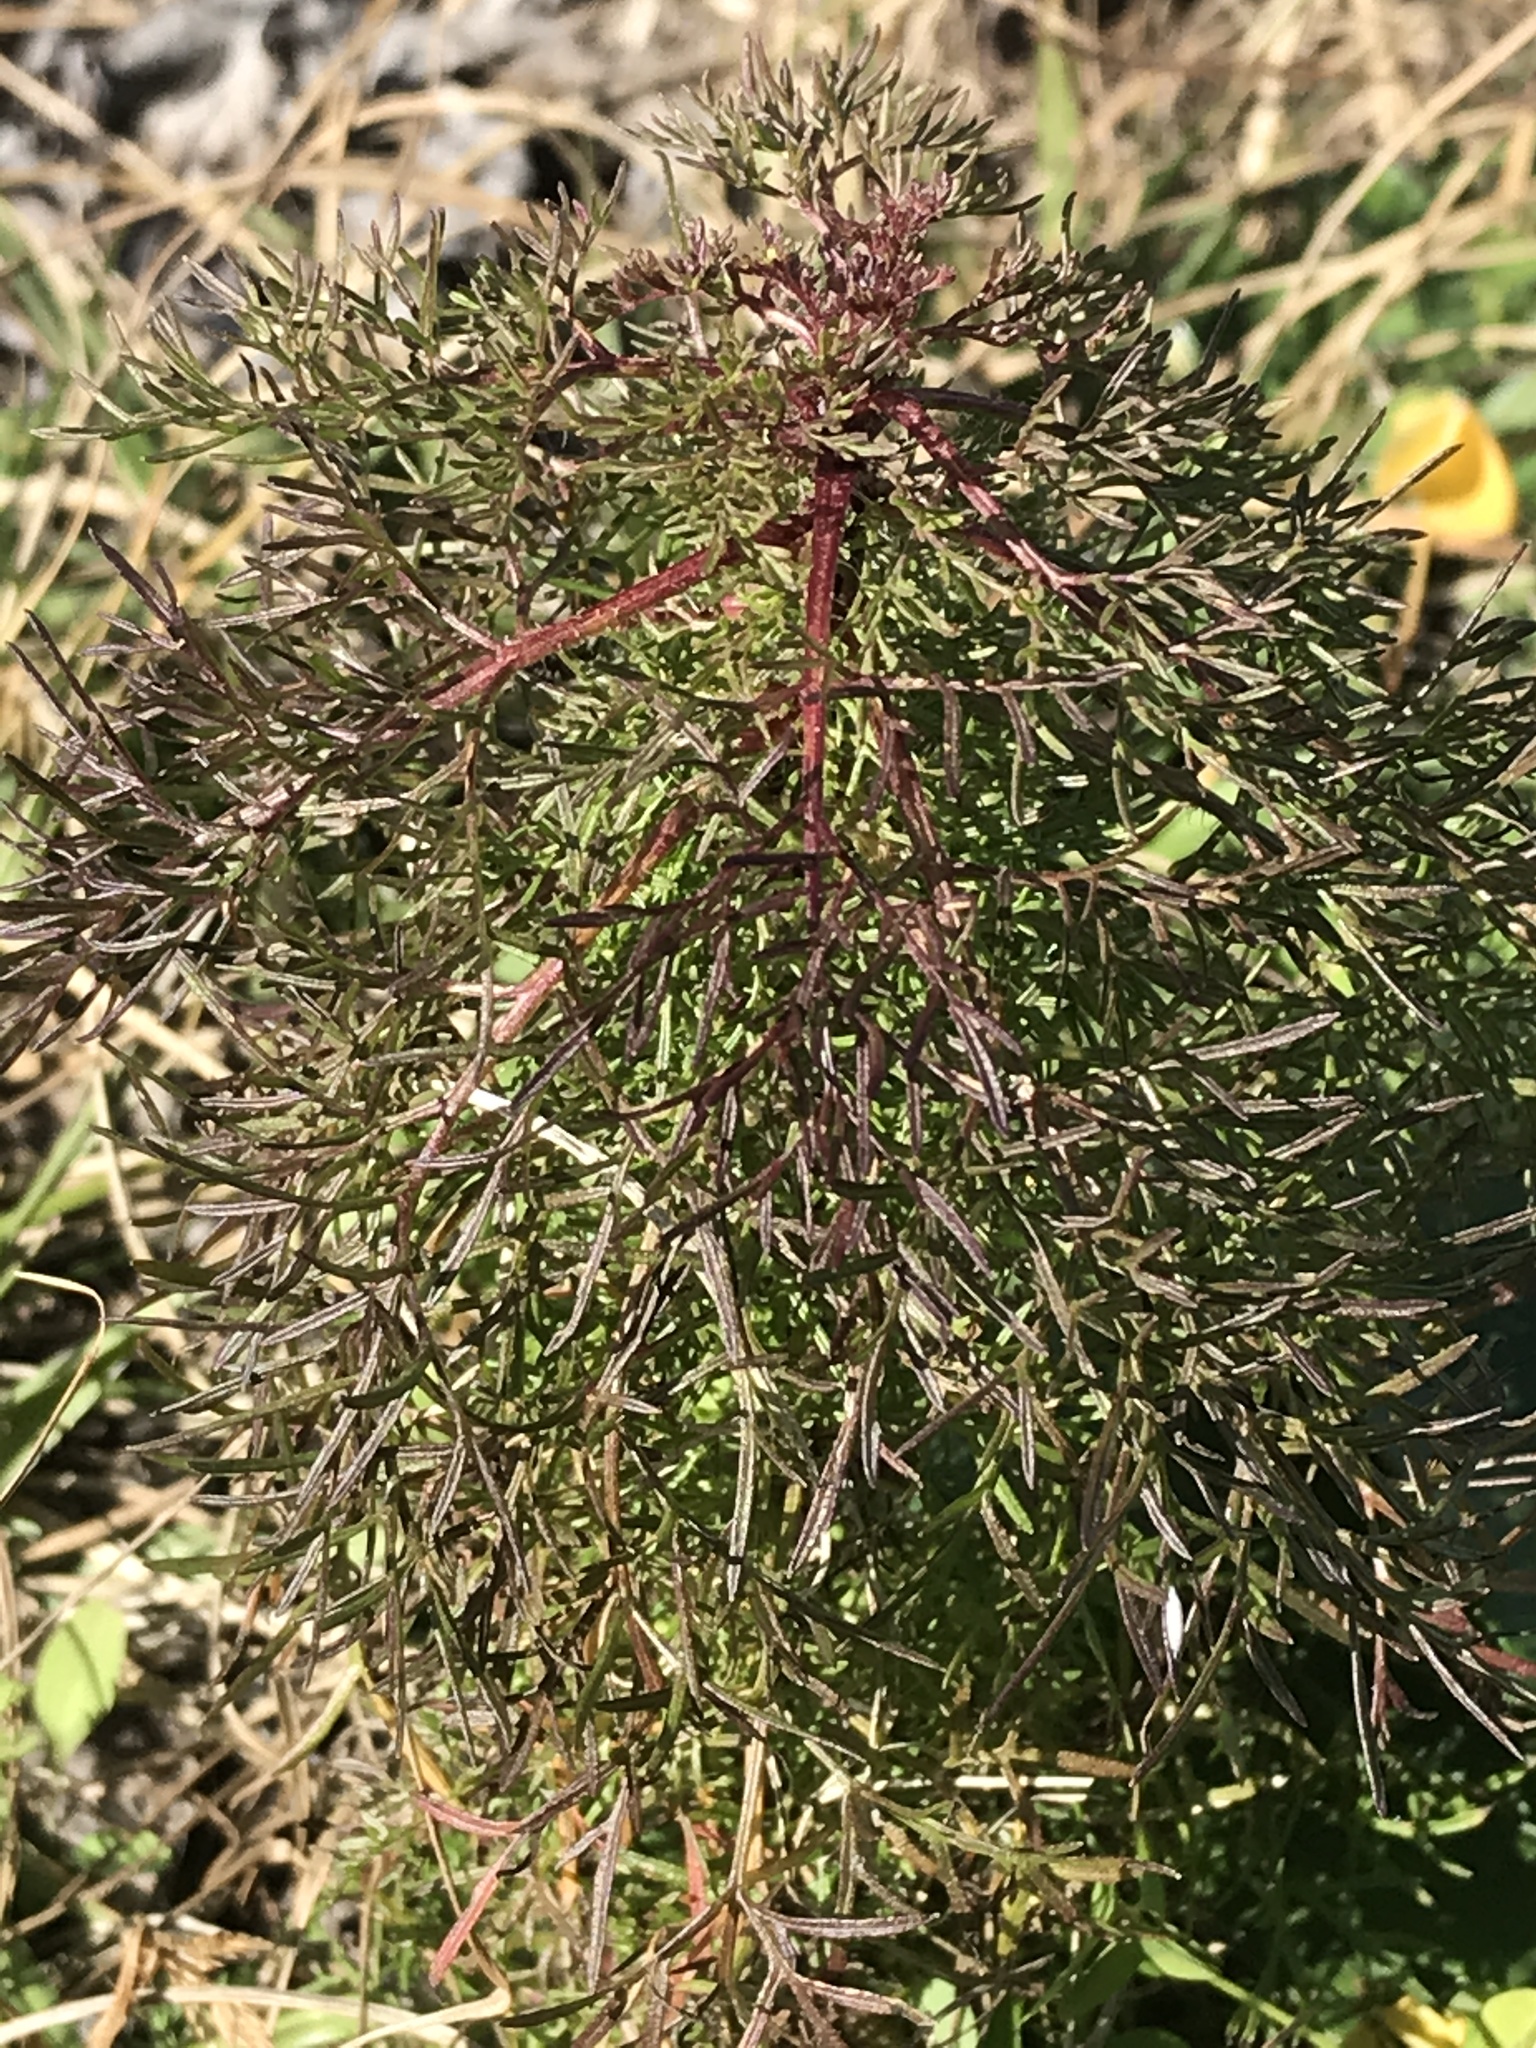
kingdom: Plantae
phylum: Tracheophyta
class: Magnoliopsida
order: Asterales
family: Asteraceae
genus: Eupatorium
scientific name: Eupatorium capillifolium
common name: Dog-fennel
